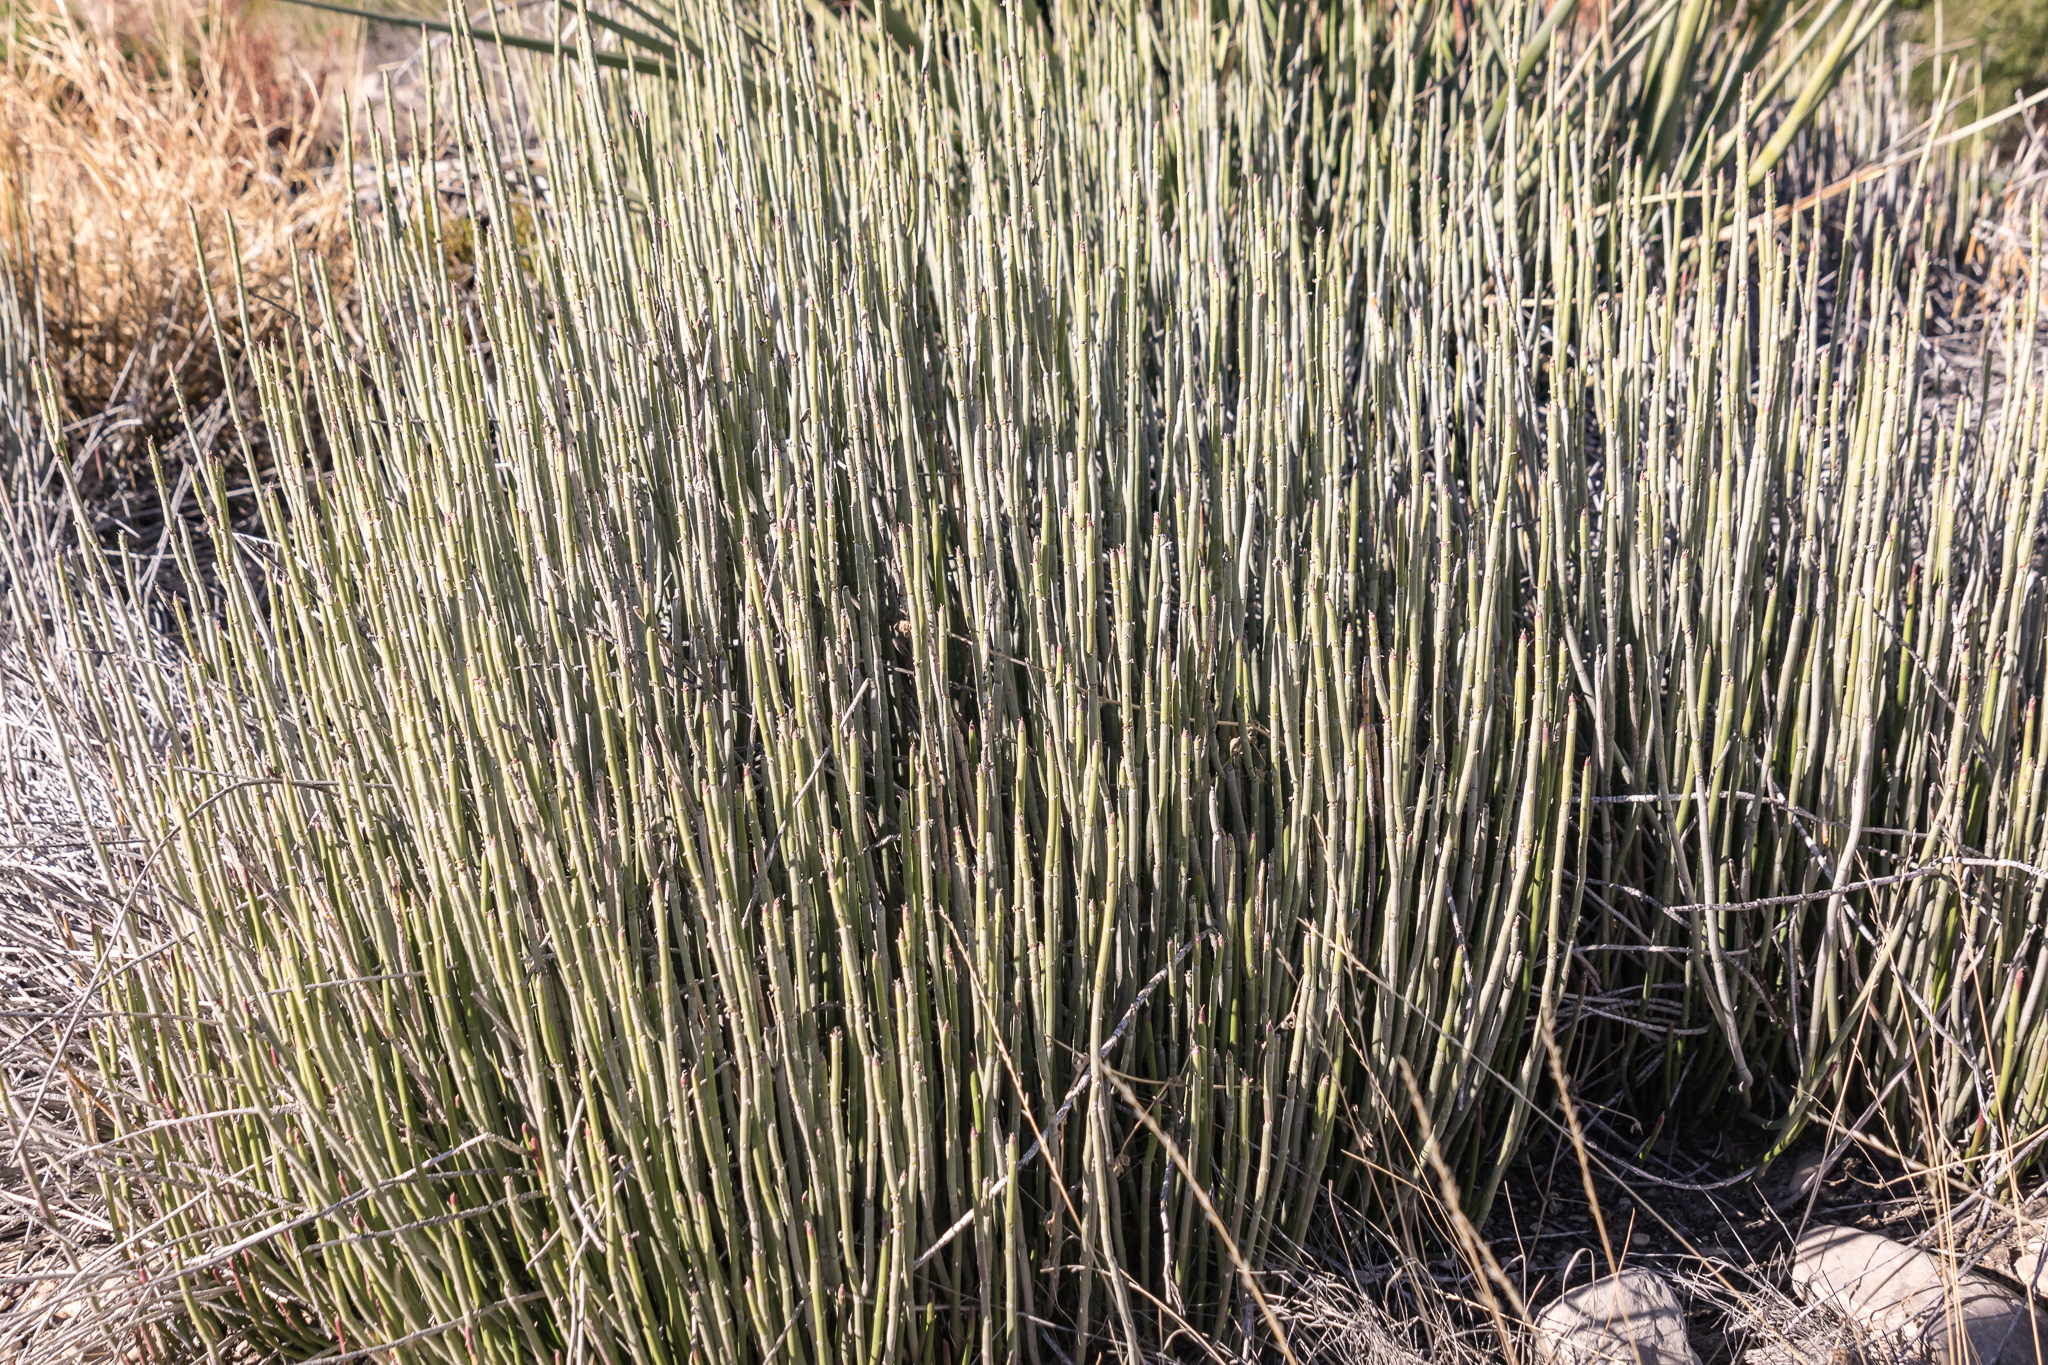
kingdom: Plantae
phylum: Tracheophyta
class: Magnoliopsida
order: Malpighiales
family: Euphorbiaceae
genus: Euphorbia
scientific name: Euphorbia antisyphilitica
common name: Candelilla
